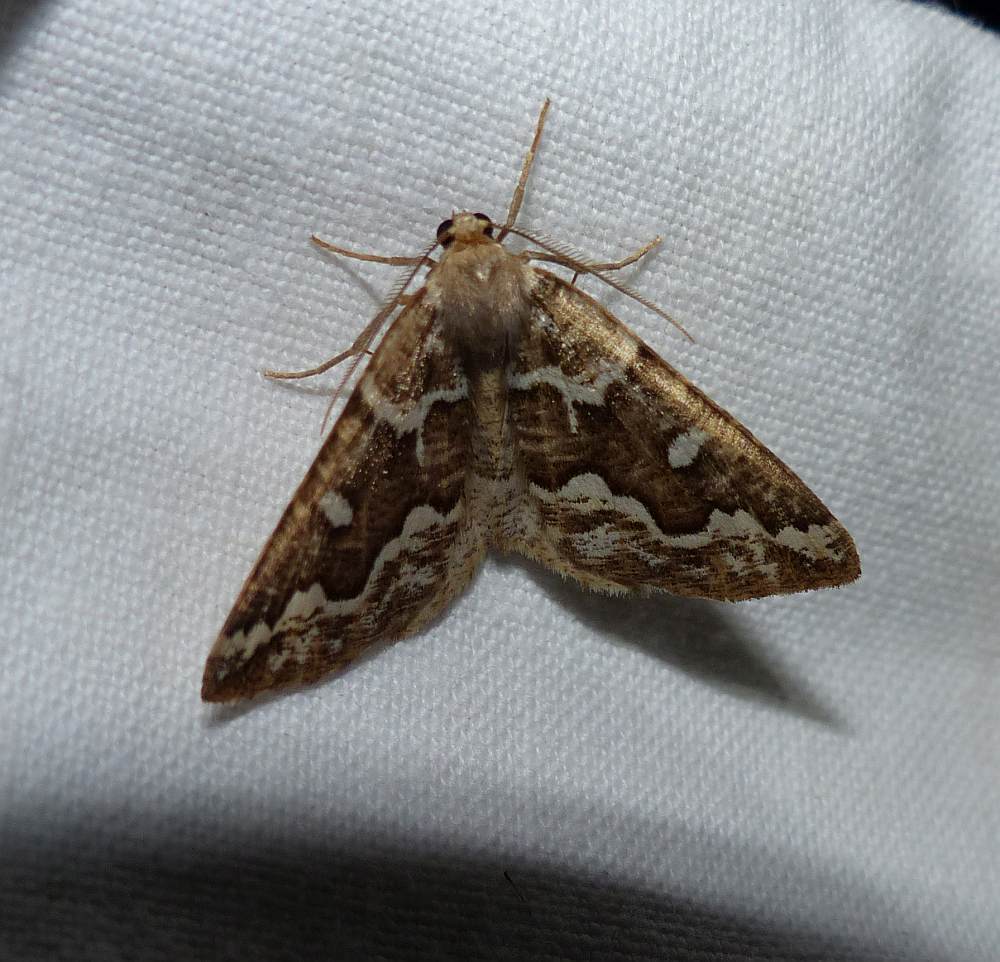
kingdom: Animalia
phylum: Arthropoda
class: Insecta
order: Lepidoptera
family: Geometridae
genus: Caripeta
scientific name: Caripeta divisata
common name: Gray spruce looper
